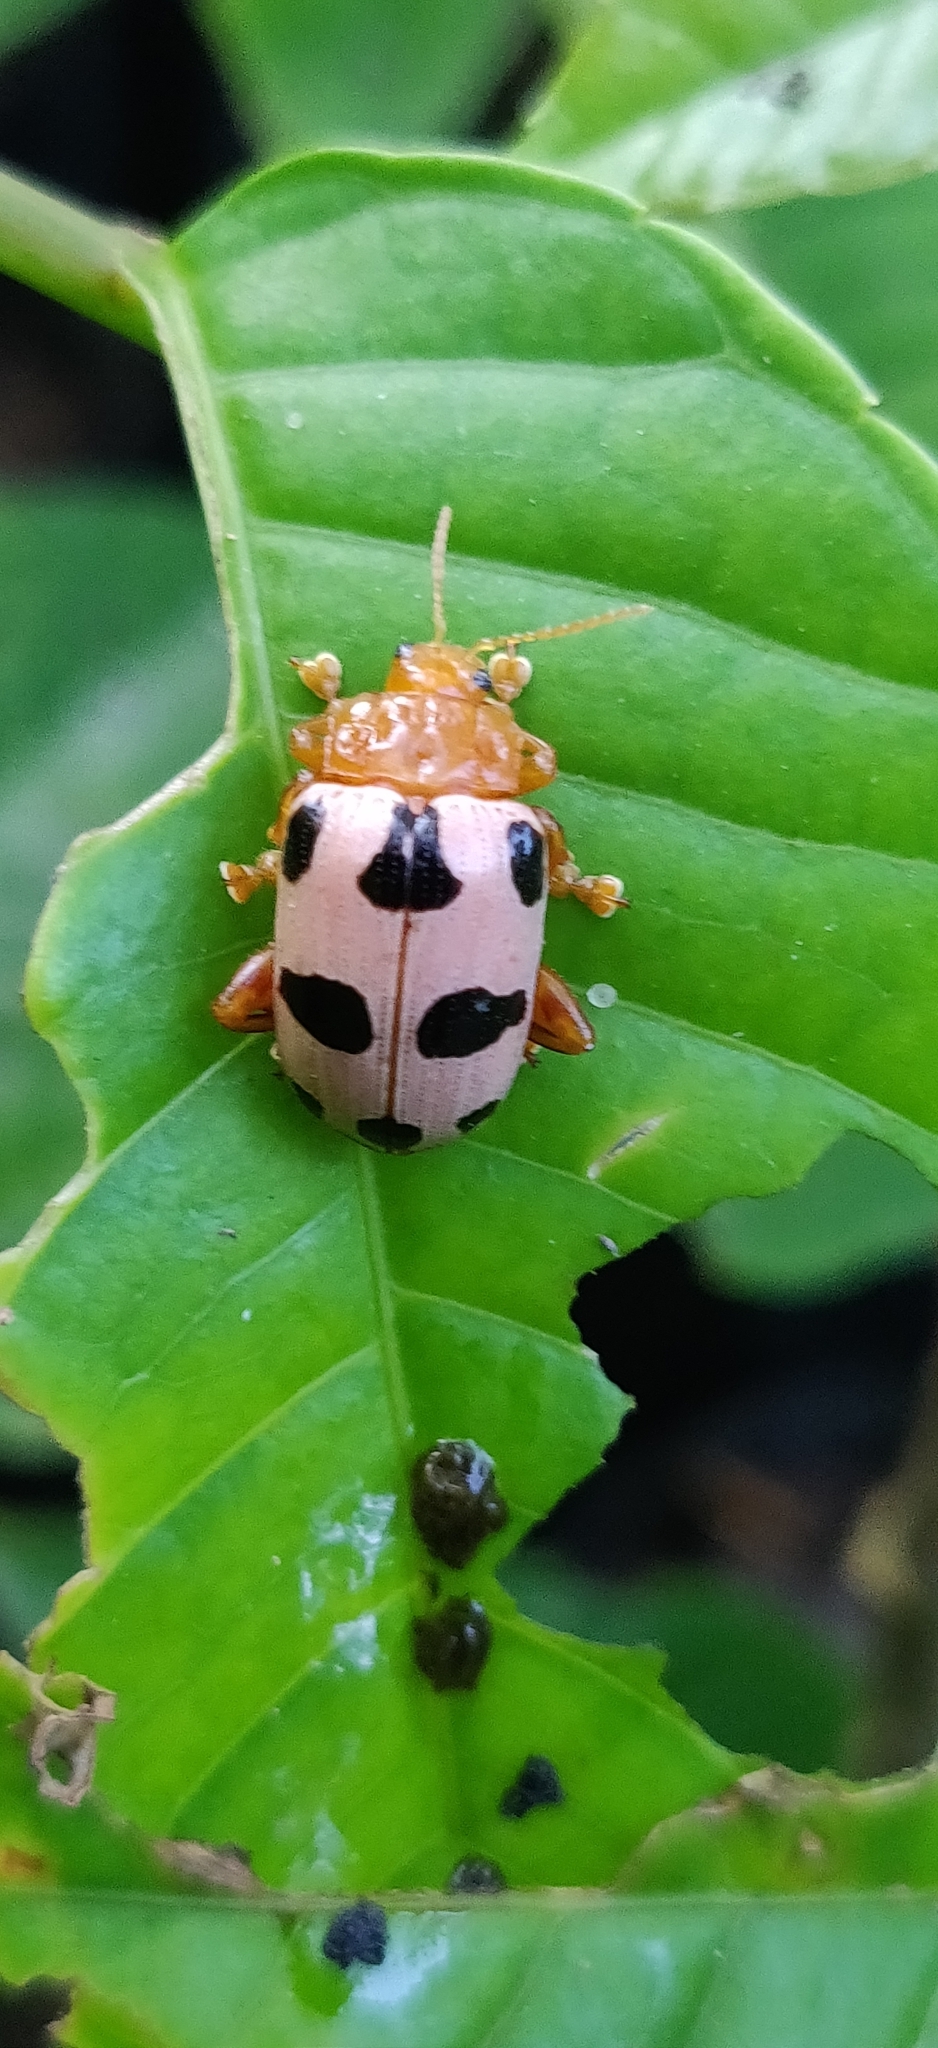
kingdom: Animalia
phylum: Arthropoda
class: Insecta
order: Coleoptera
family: Chrysomelidae
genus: Podontia
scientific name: Podontia
